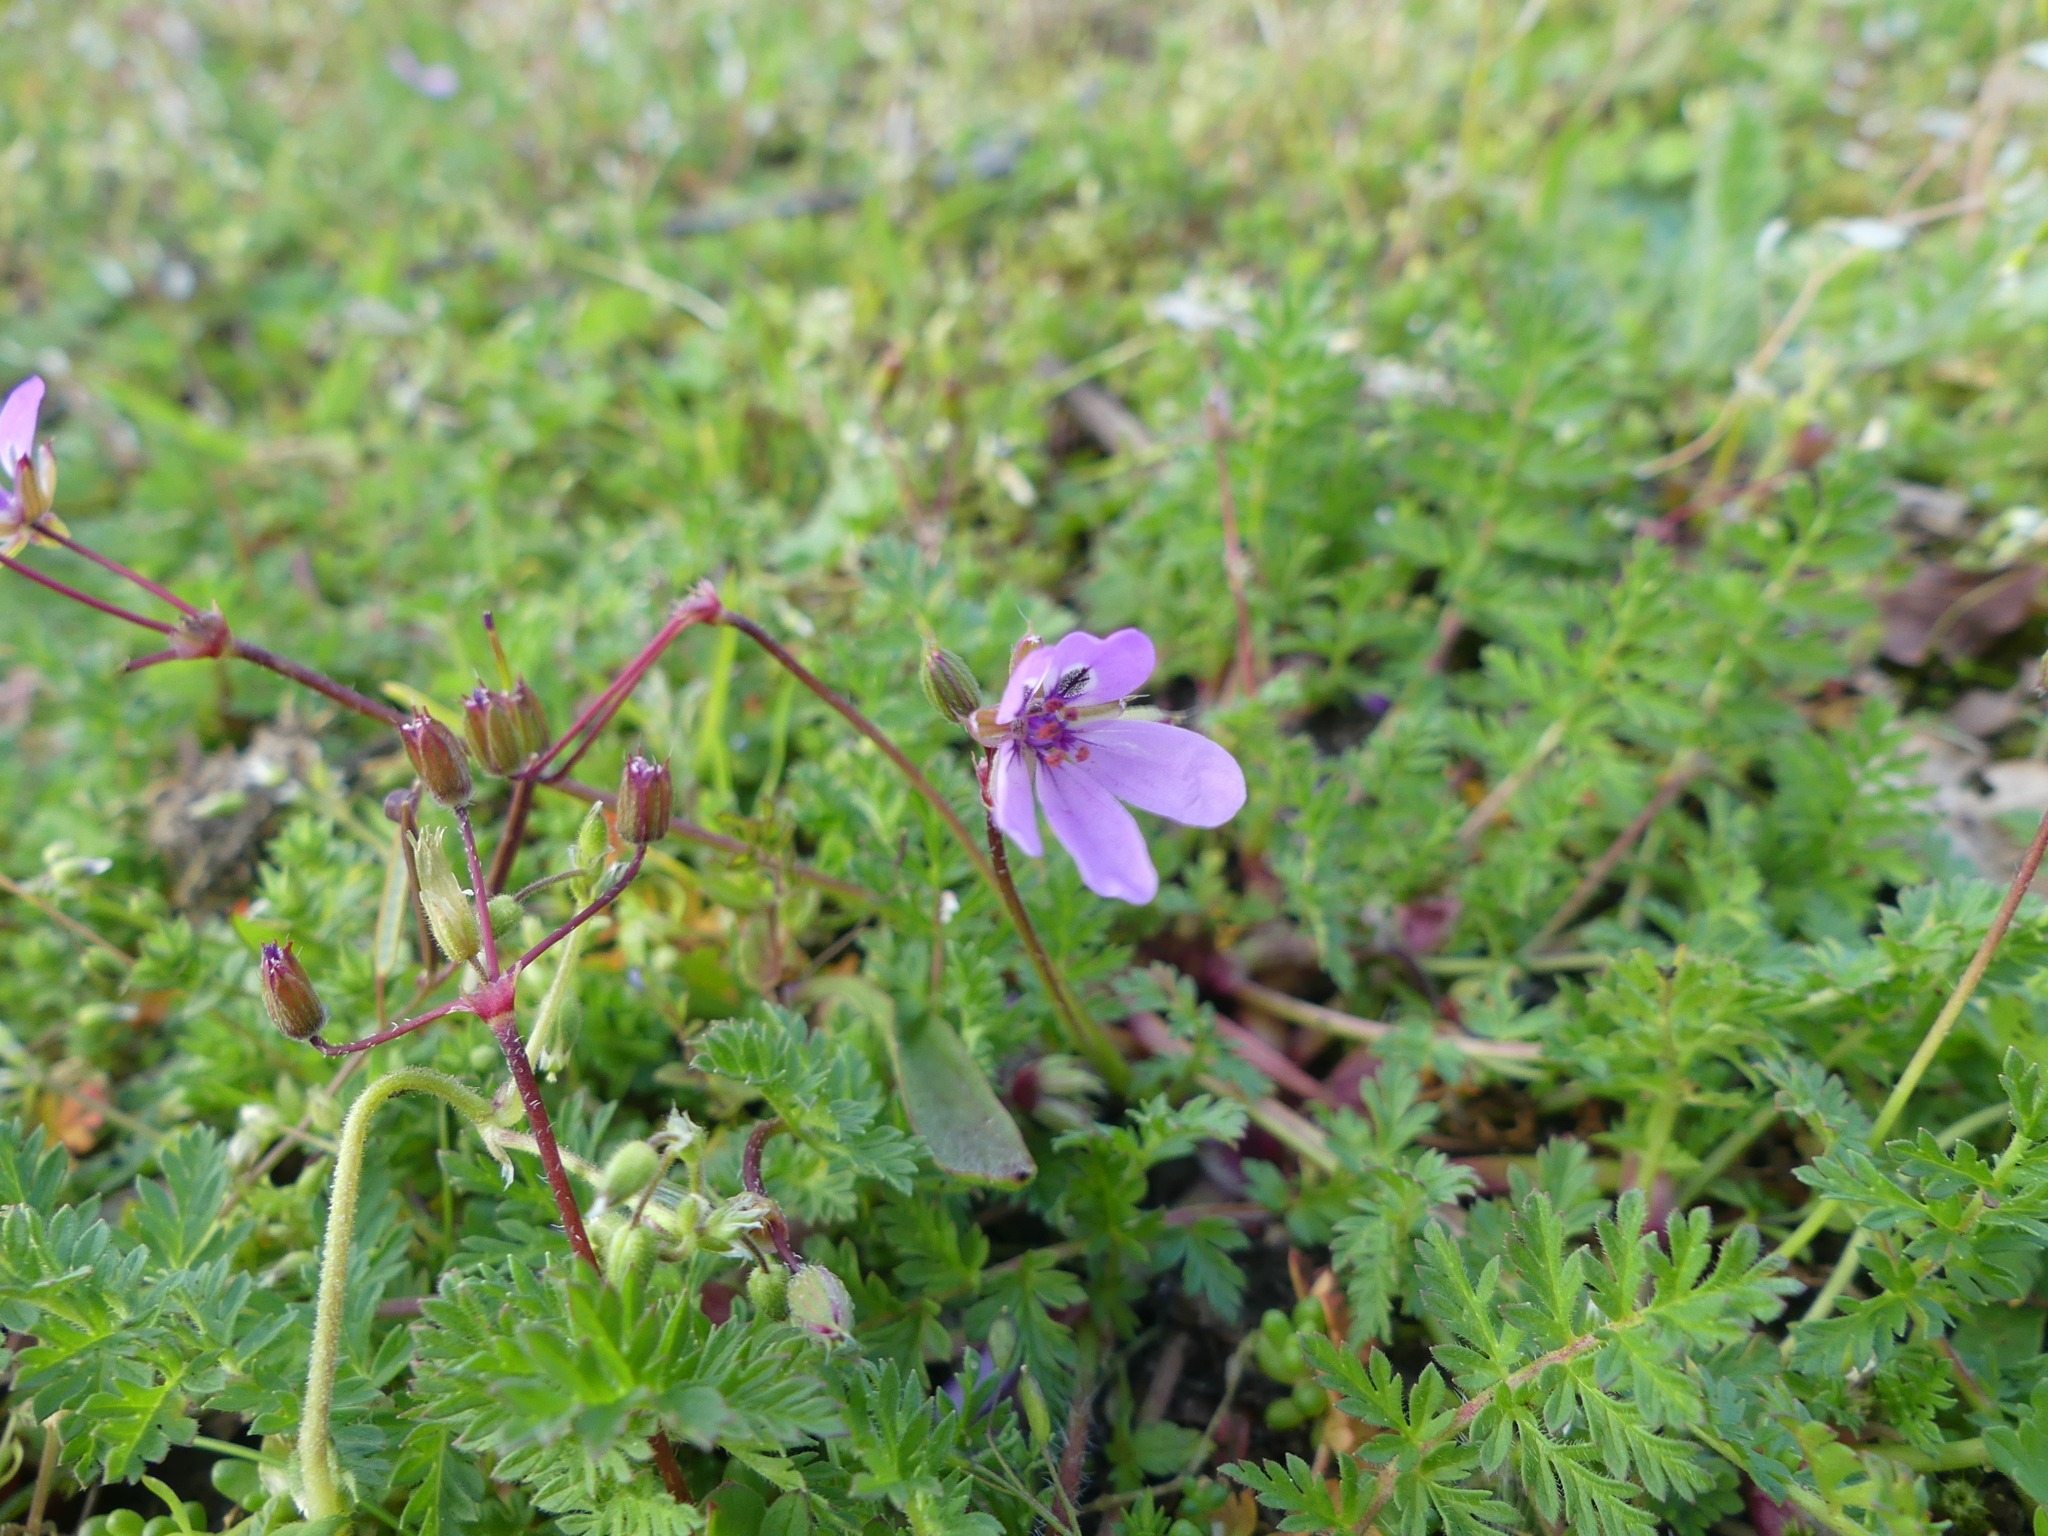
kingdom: Plantae
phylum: Tracheophyta
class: Magnoliopsida
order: Geraniales
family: Geraniaceae
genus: Erodium
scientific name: Erodium cicutarium
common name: Common stork's-bill
